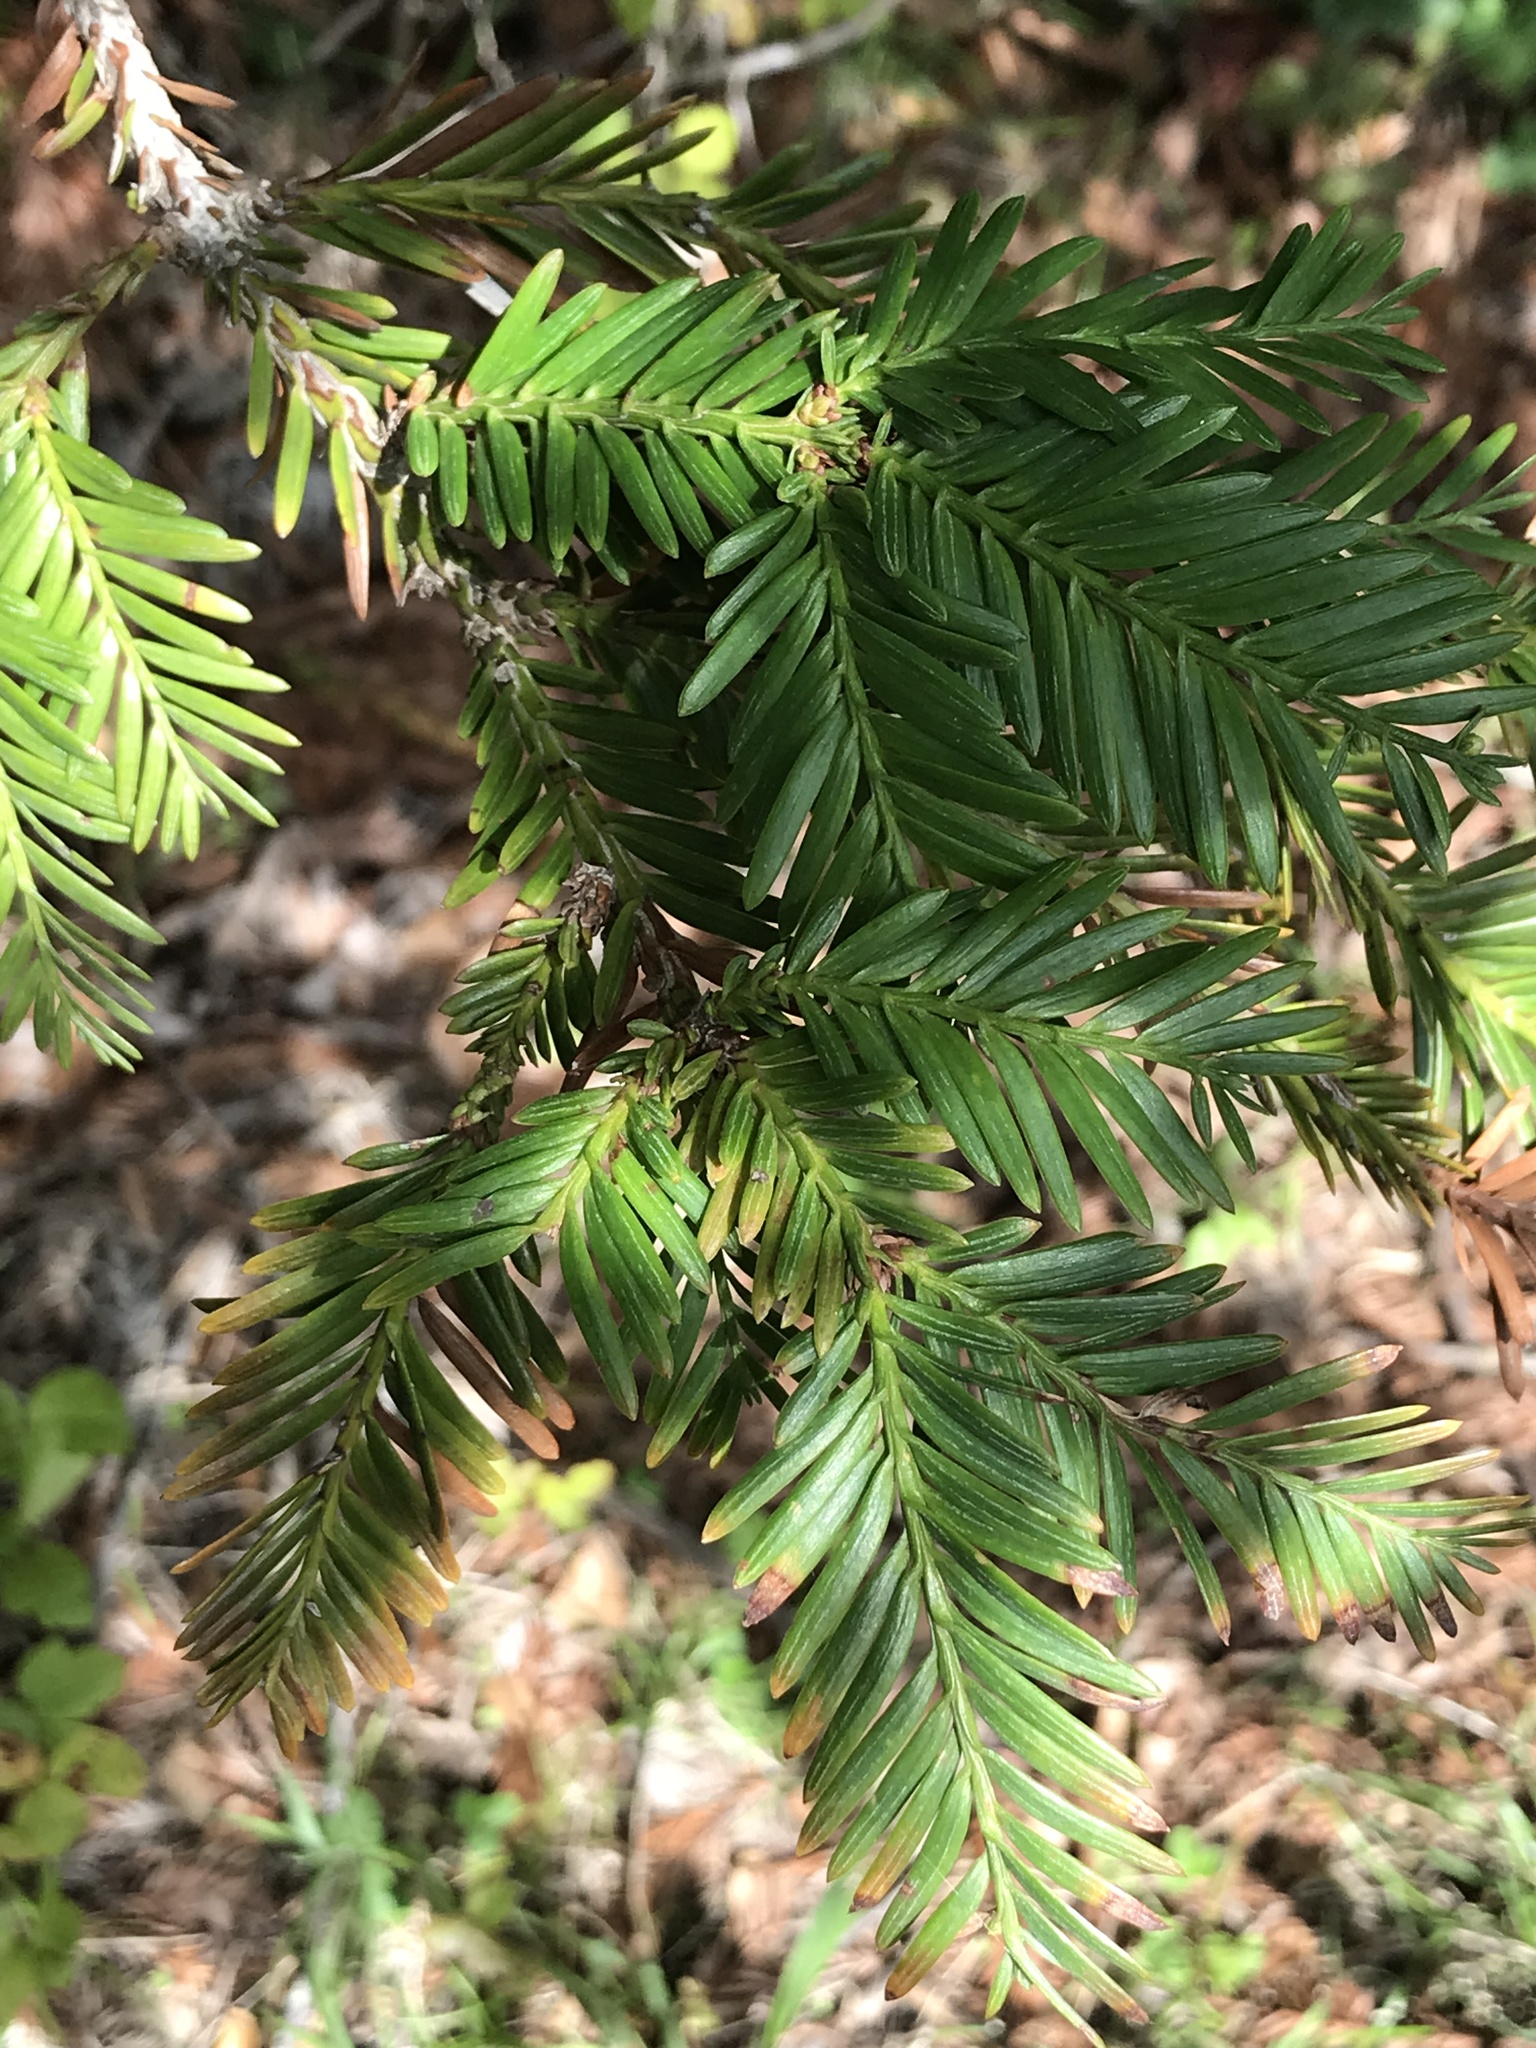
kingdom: Plantae
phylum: Tracheophyta
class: Pinopsida
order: Pinales
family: Cupressaceae
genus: Sequoia
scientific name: Sequoia sempervirens
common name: Coast redwood
